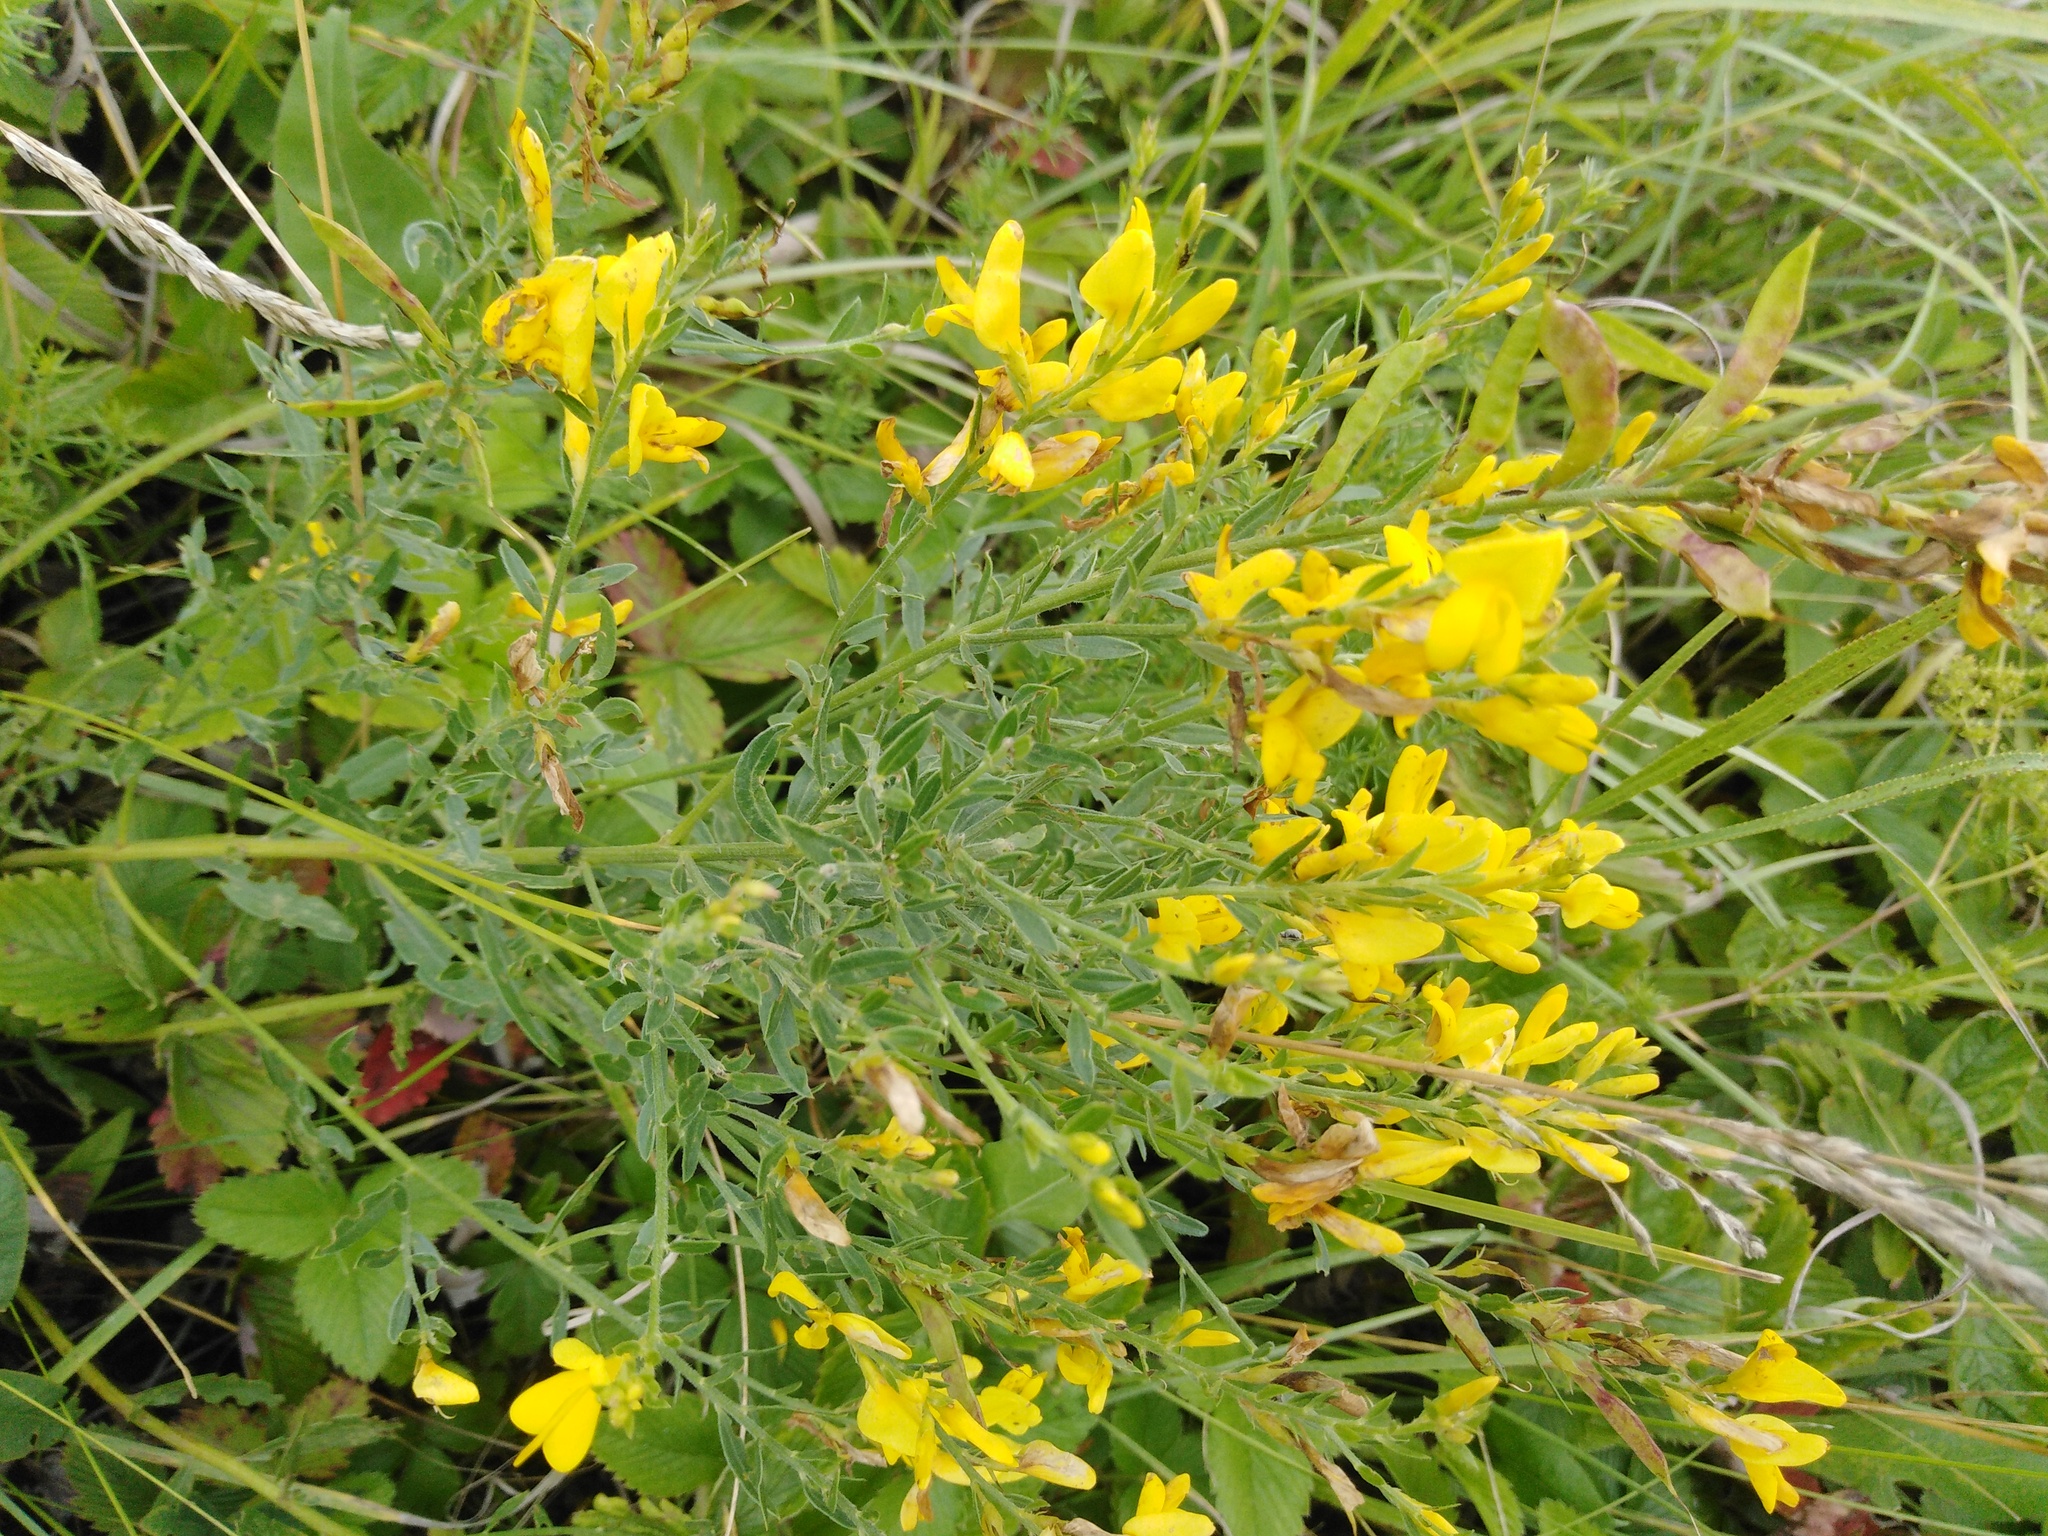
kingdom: Plantae
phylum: Tracheophyta
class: Magnoliopsida
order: Fabales
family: Fabaceae
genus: Genista
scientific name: Genista tinctoria
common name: Dyer's greenweed
